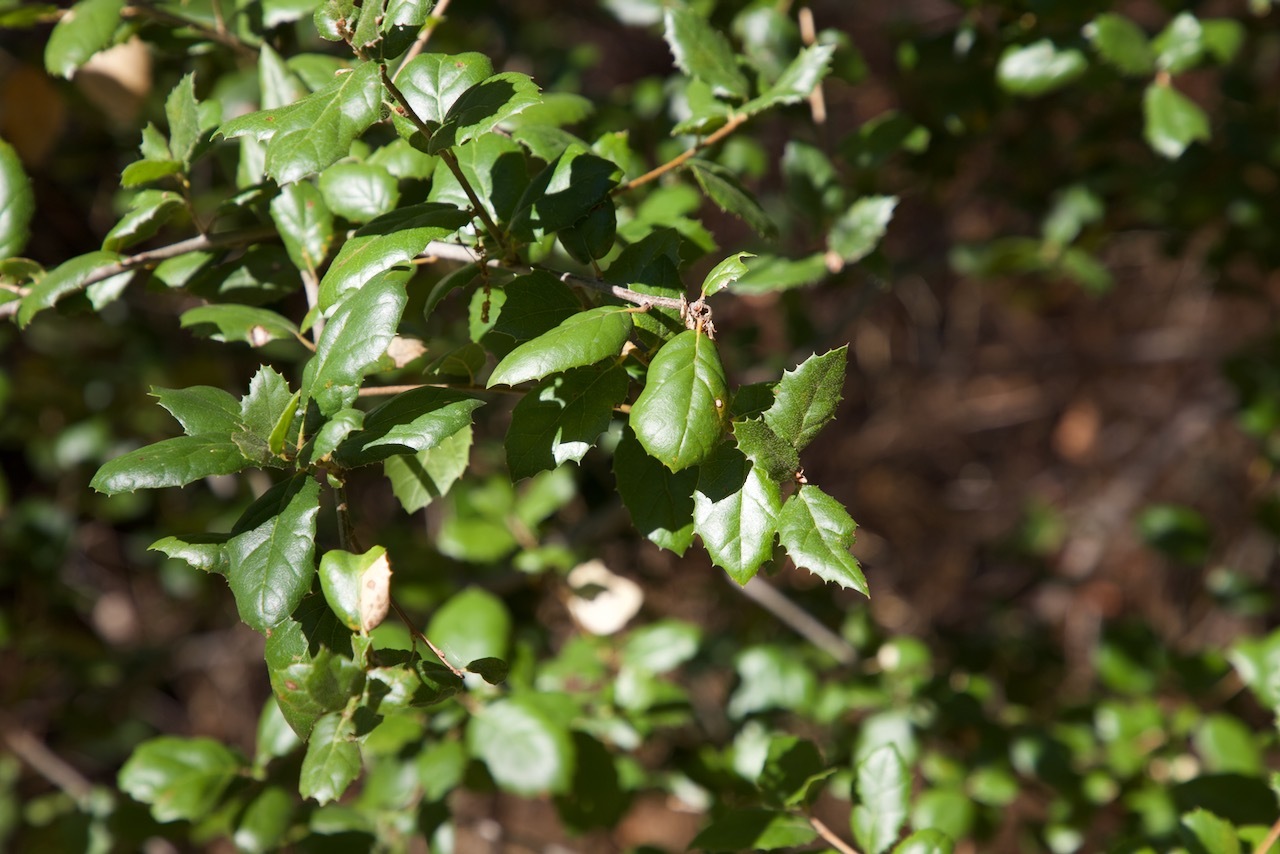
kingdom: Plantae
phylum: Tracheophyta
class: Magnoliopsida
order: Fagales
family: Fagaceae
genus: Quercus
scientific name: Quercus agrifolia
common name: California live oak
